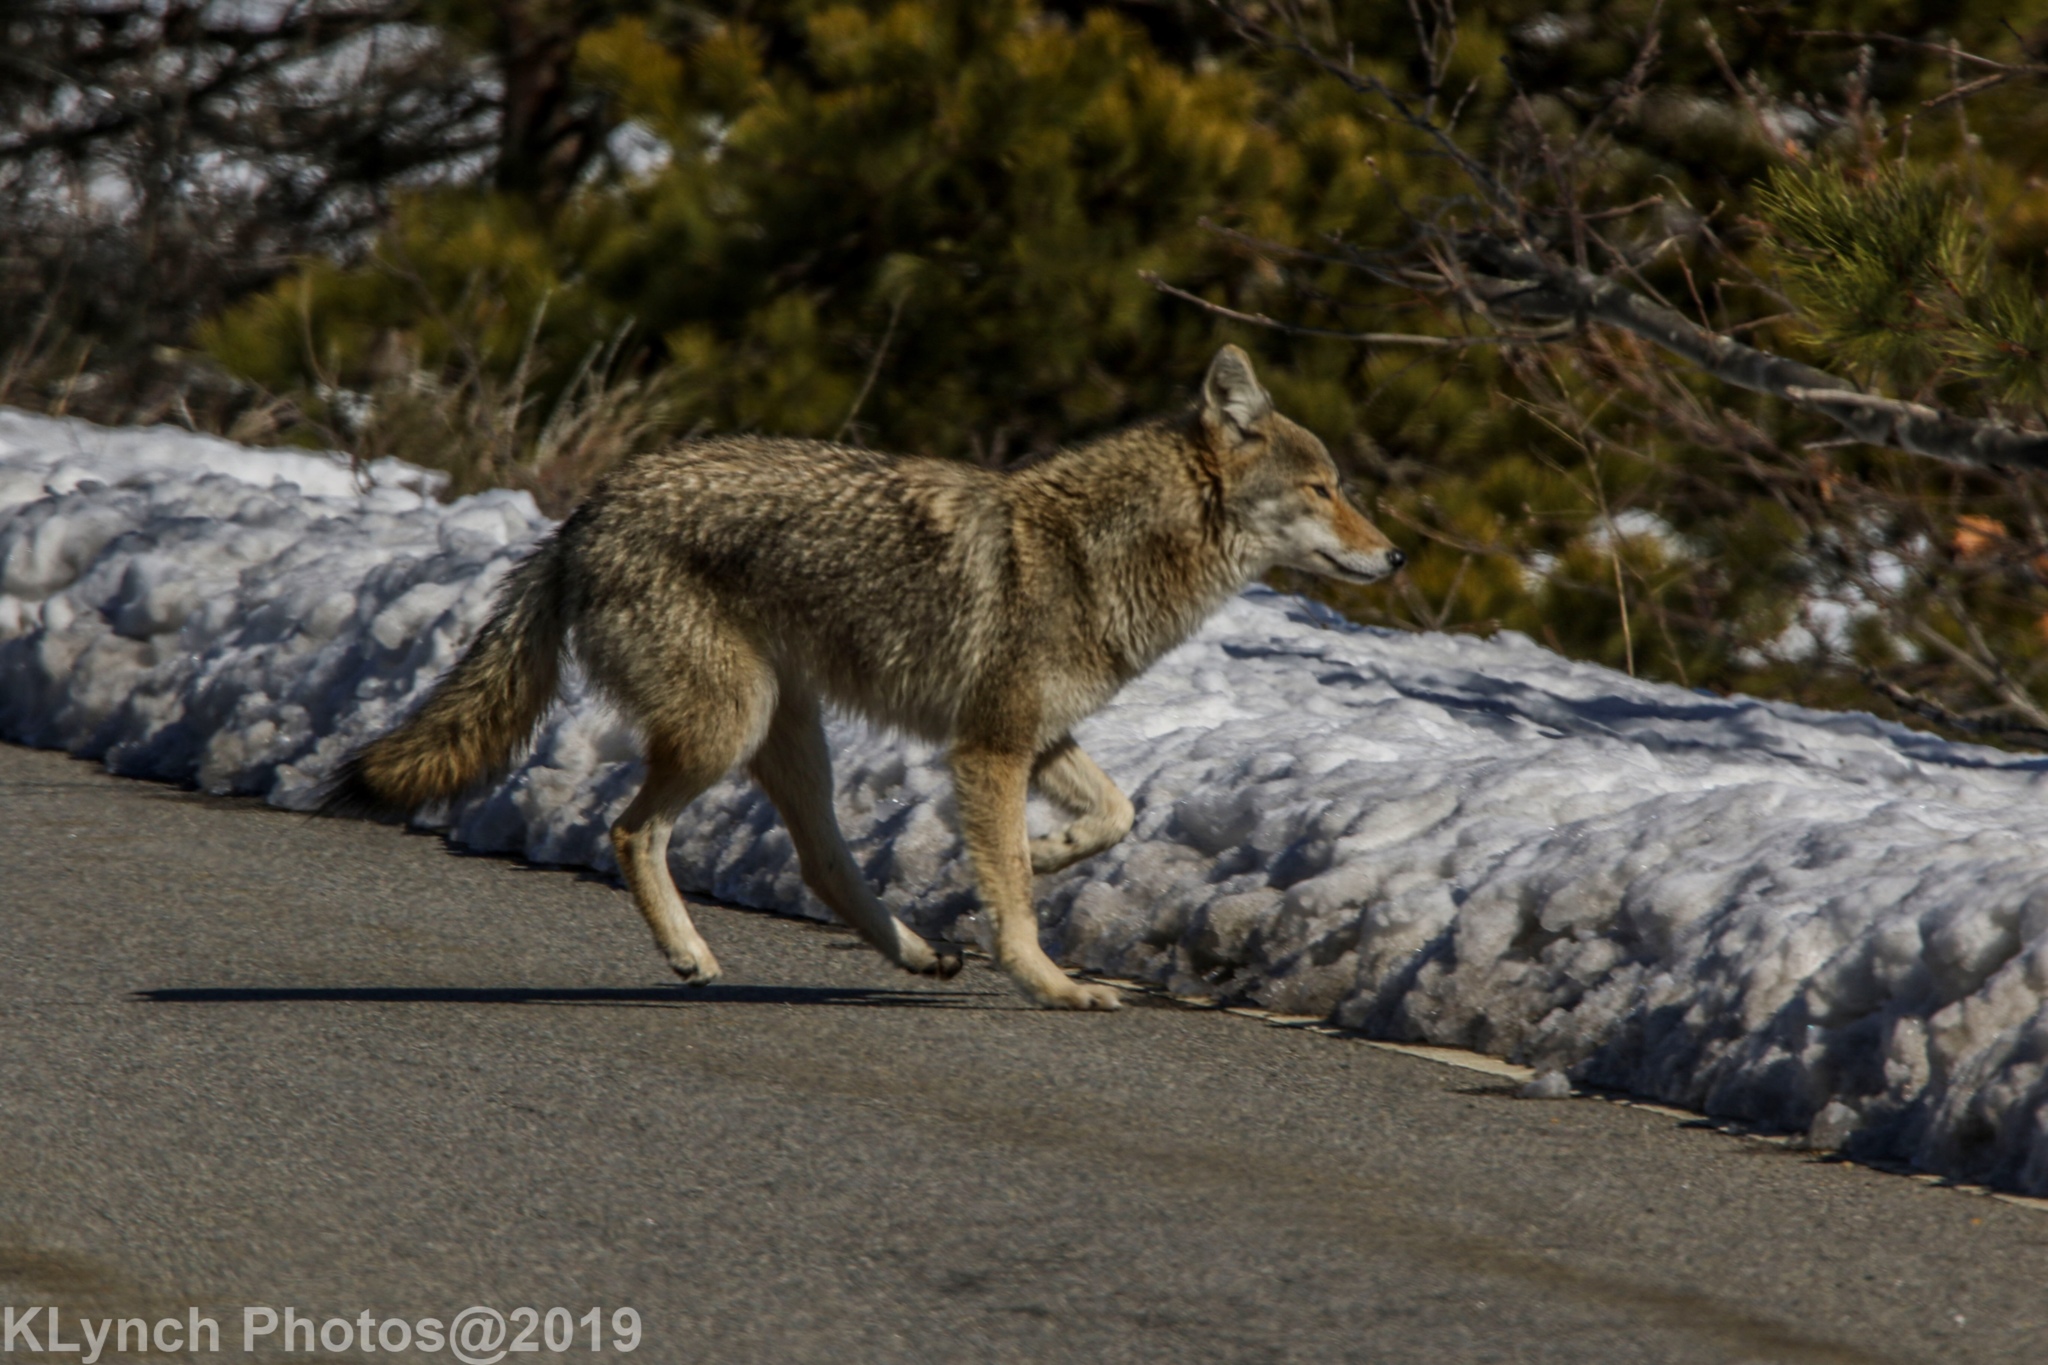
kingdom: Animalia
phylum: Chordata
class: Mammalia
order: Carnivora
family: Canidae
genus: Canis
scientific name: Canis latrans
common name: Coyote
